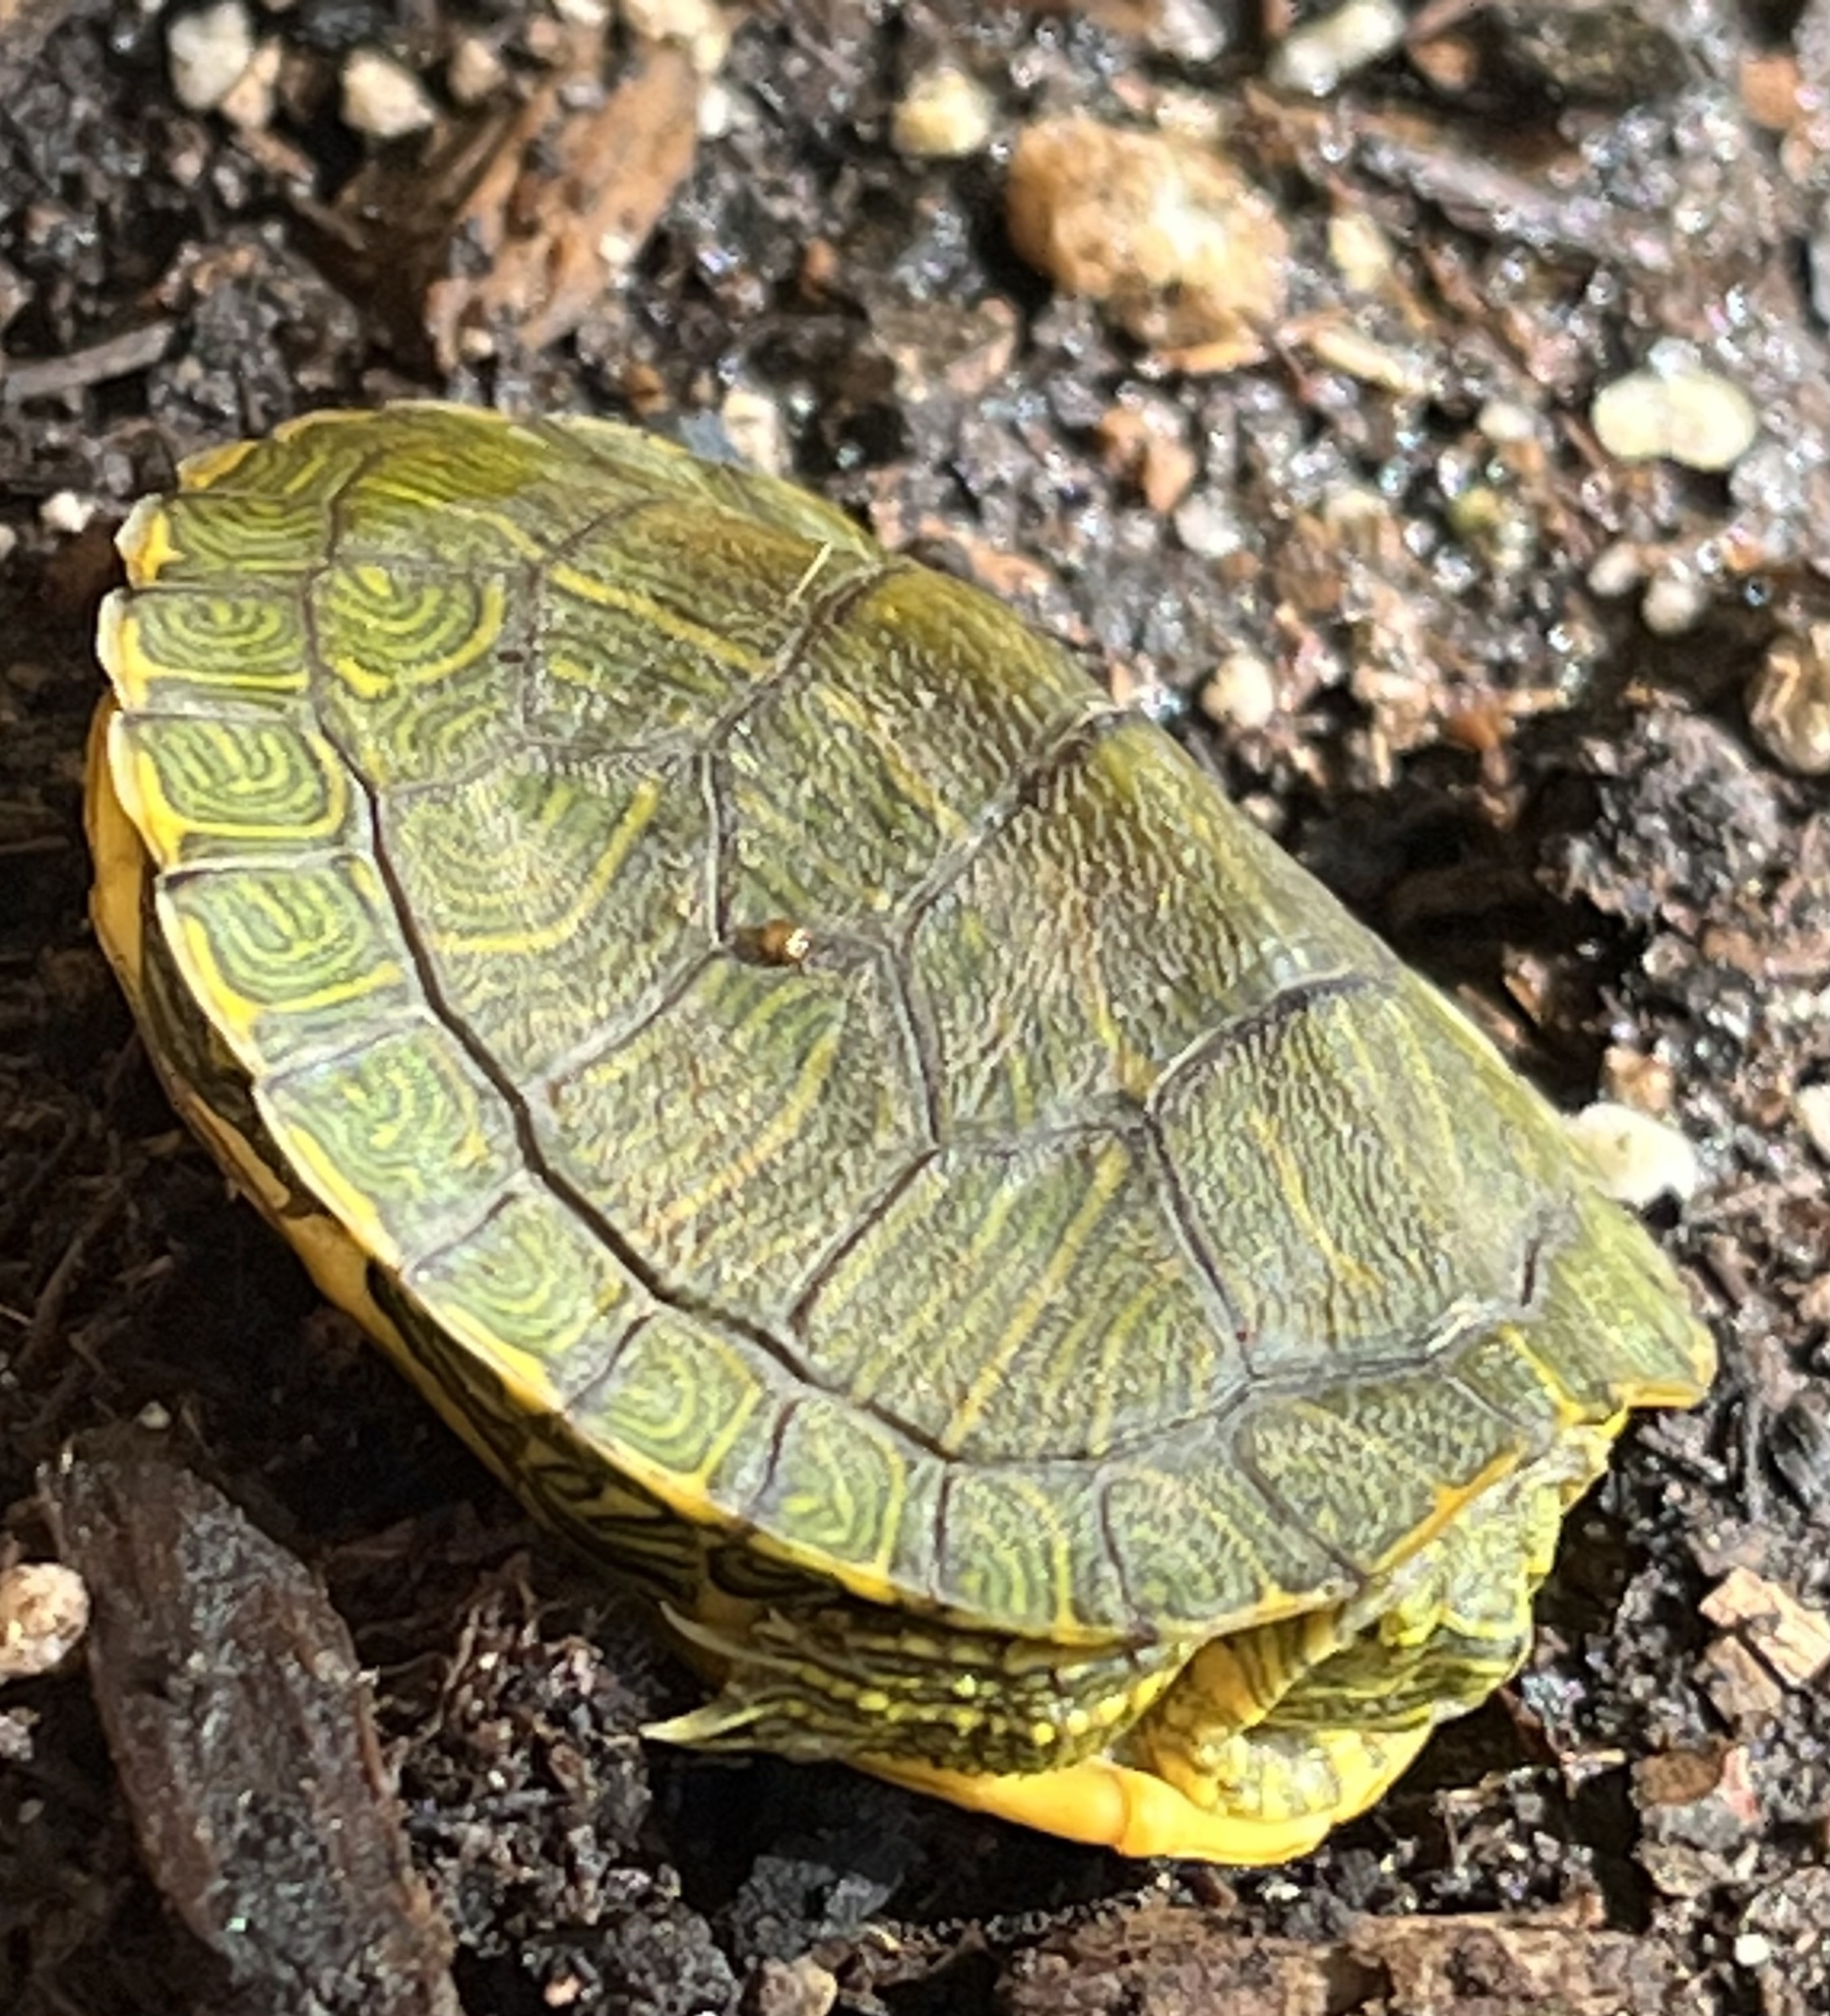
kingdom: Animalia
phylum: Chordata
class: Testudines
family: Emydidae
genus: Trachemys
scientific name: Trachemys scripta
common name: Slider
